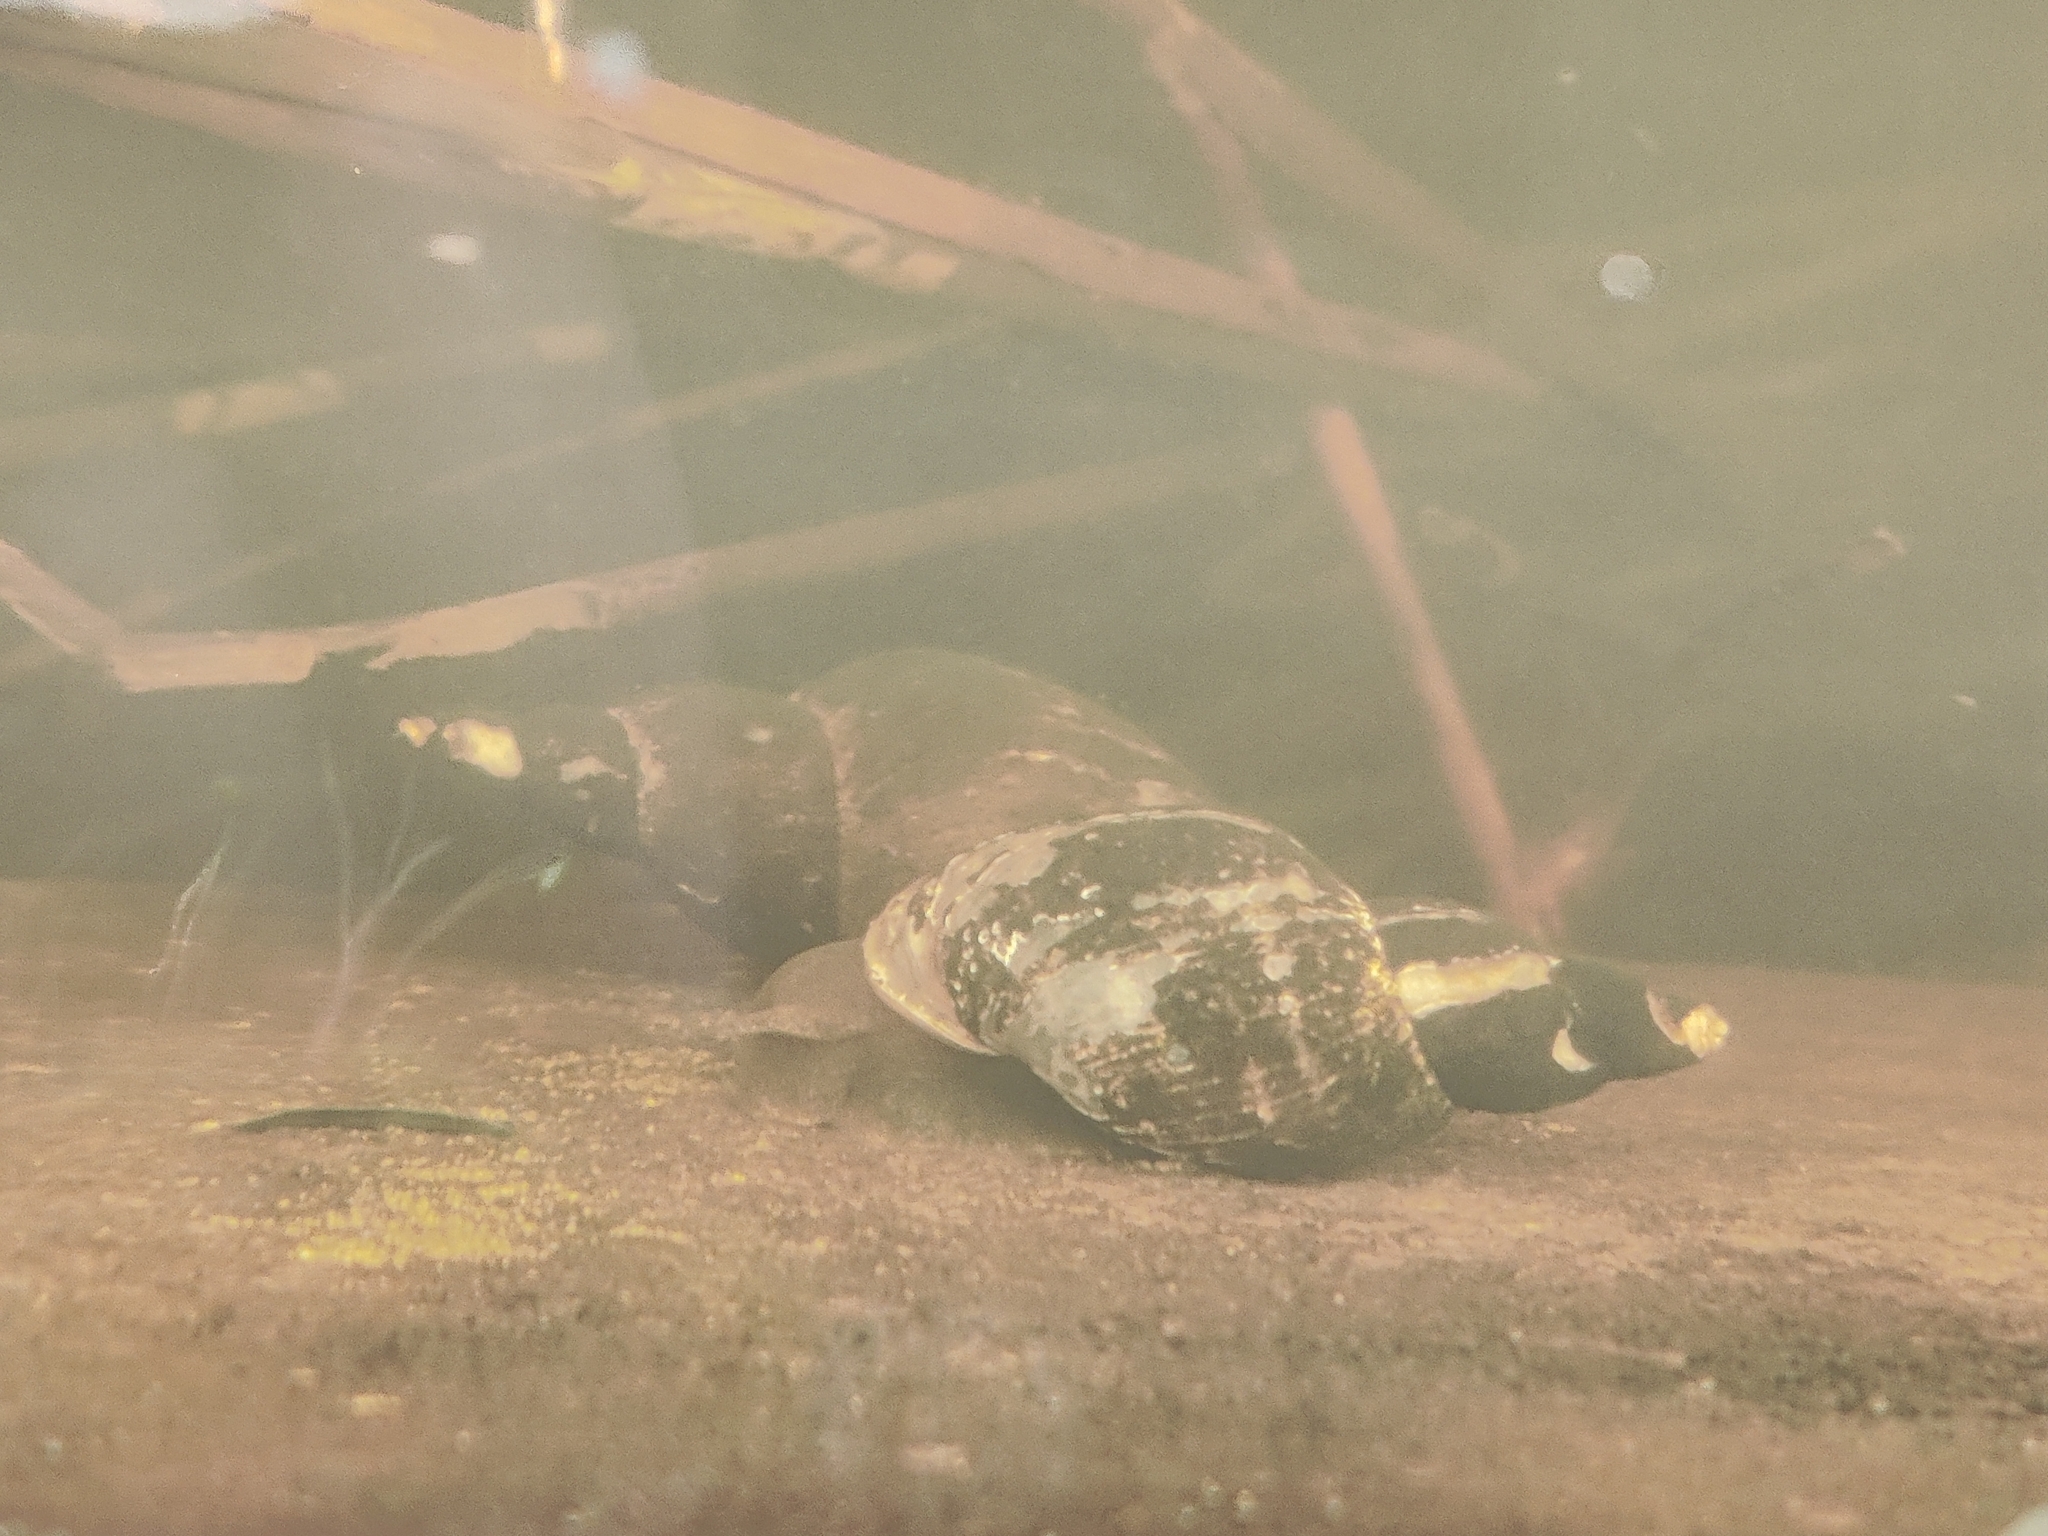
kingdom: Animalia
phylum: Mollusca
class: Gastropoda
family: Lymnaeidae
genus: Lymnaea
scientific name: Lymnaea stagnalis
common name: Great pond snail
